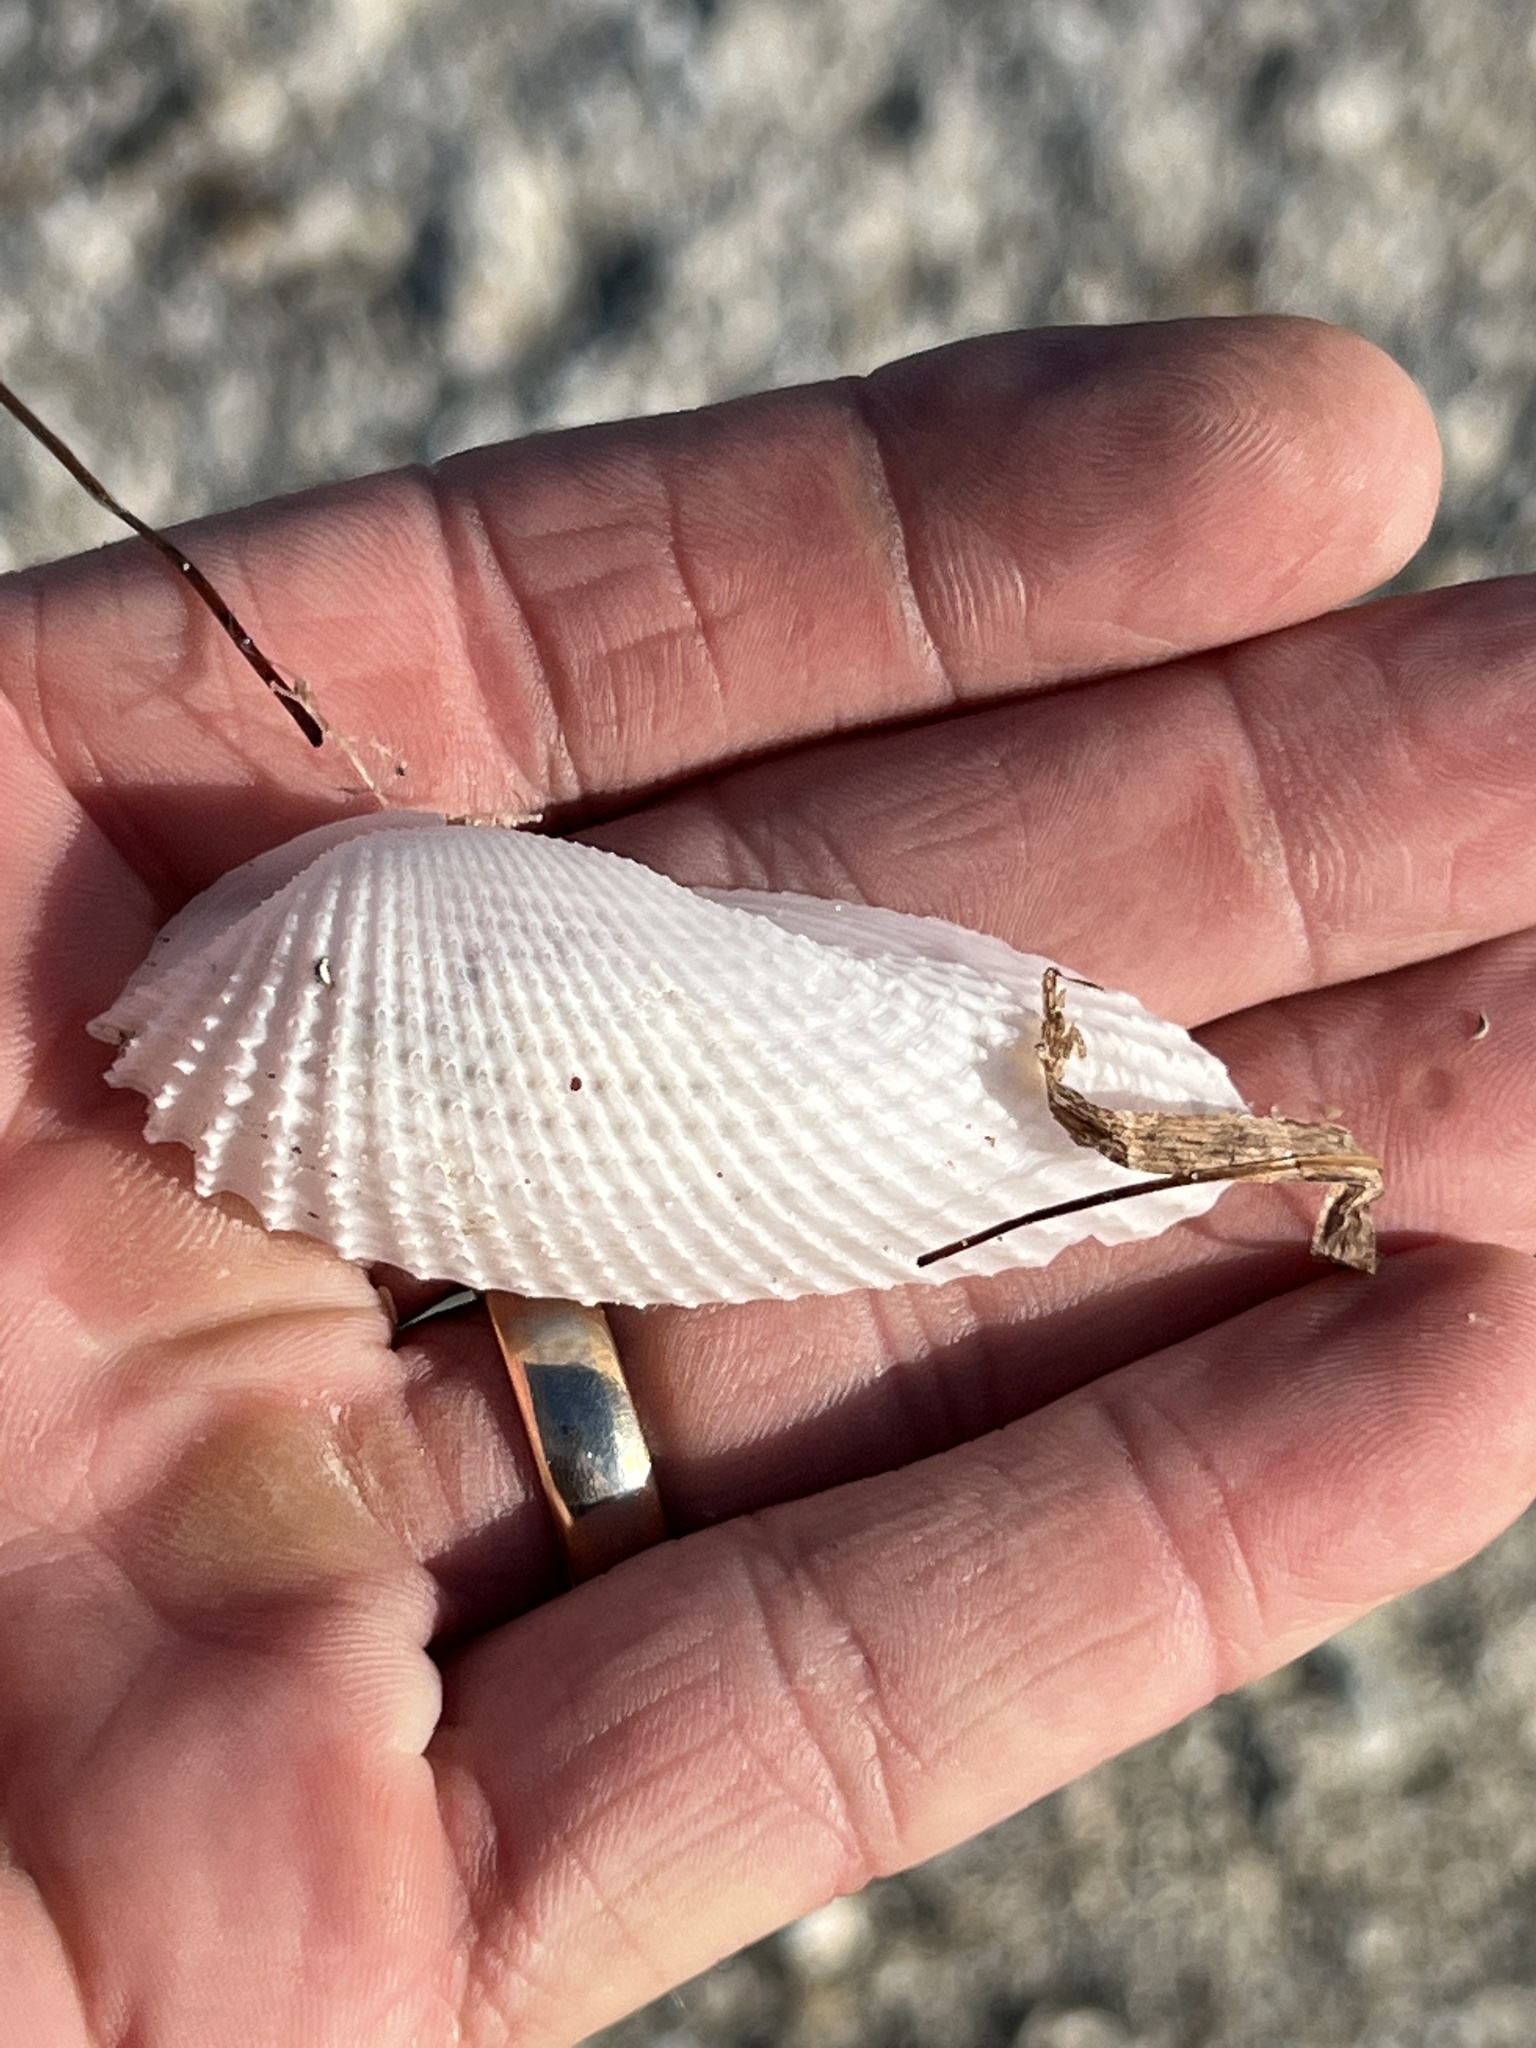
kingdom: Animalia
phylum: Mollusca
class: Bivalvia
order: Myida
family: Pholadidae
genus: Cyrtopleura
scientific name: Cyrtopleura costata
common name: Angel wing
